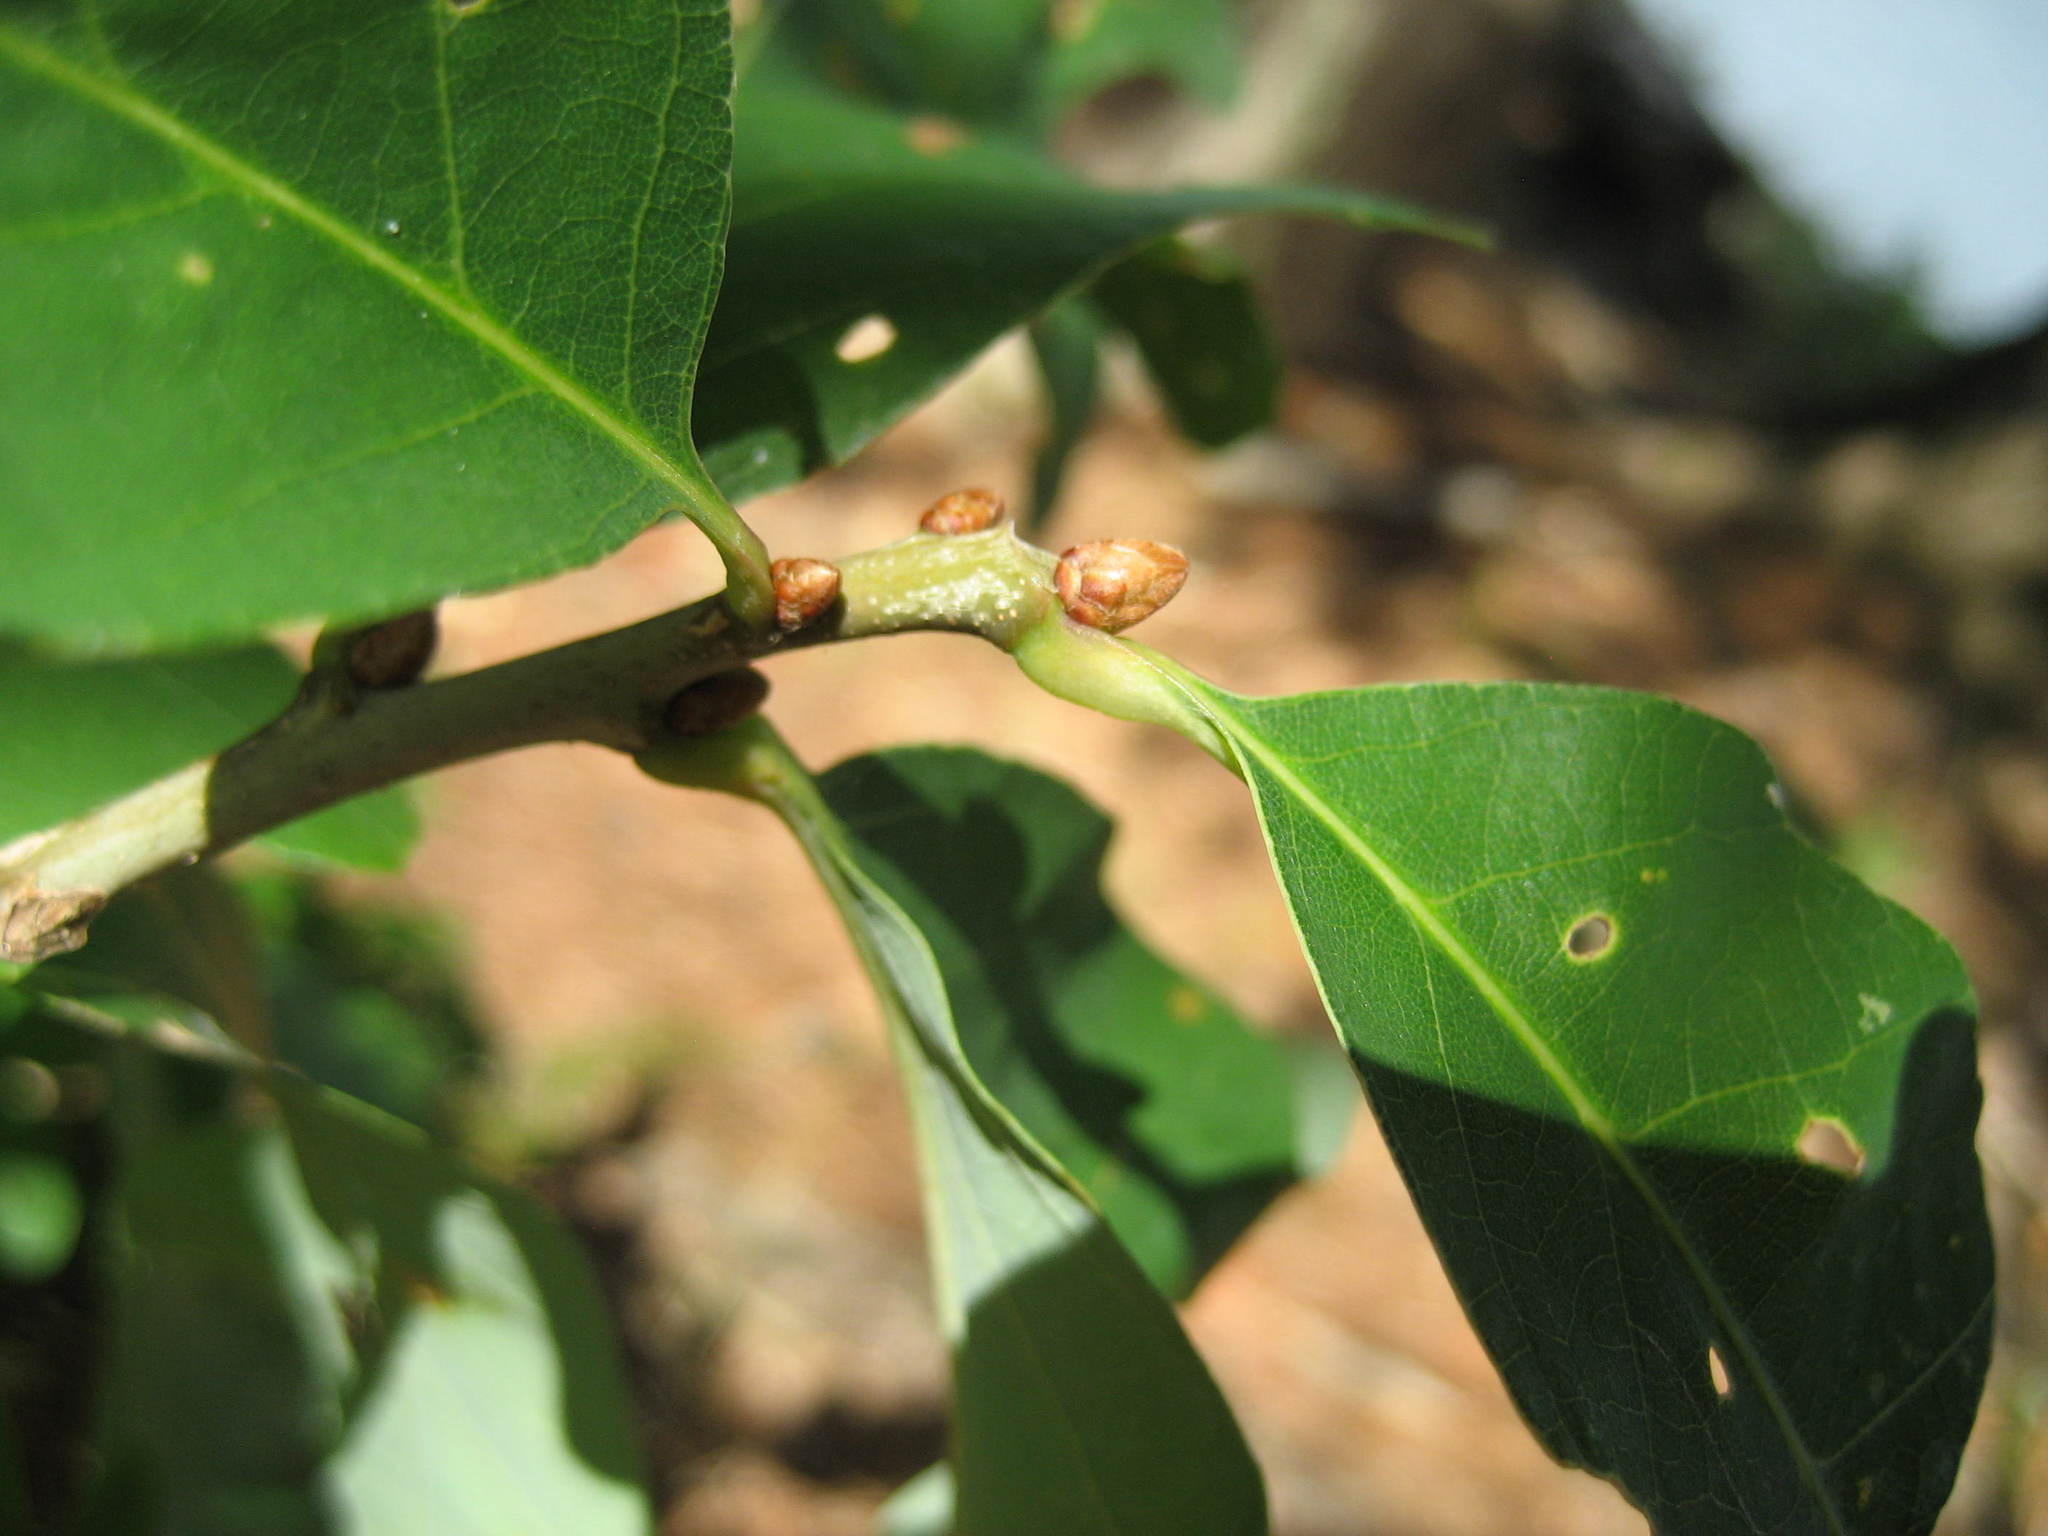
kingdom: Plantae
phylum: Tracheophyta
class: Magnoliopsida
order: Fagales
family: Fagaceae
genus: Quercus
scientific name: Quercus alba
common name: White oak
